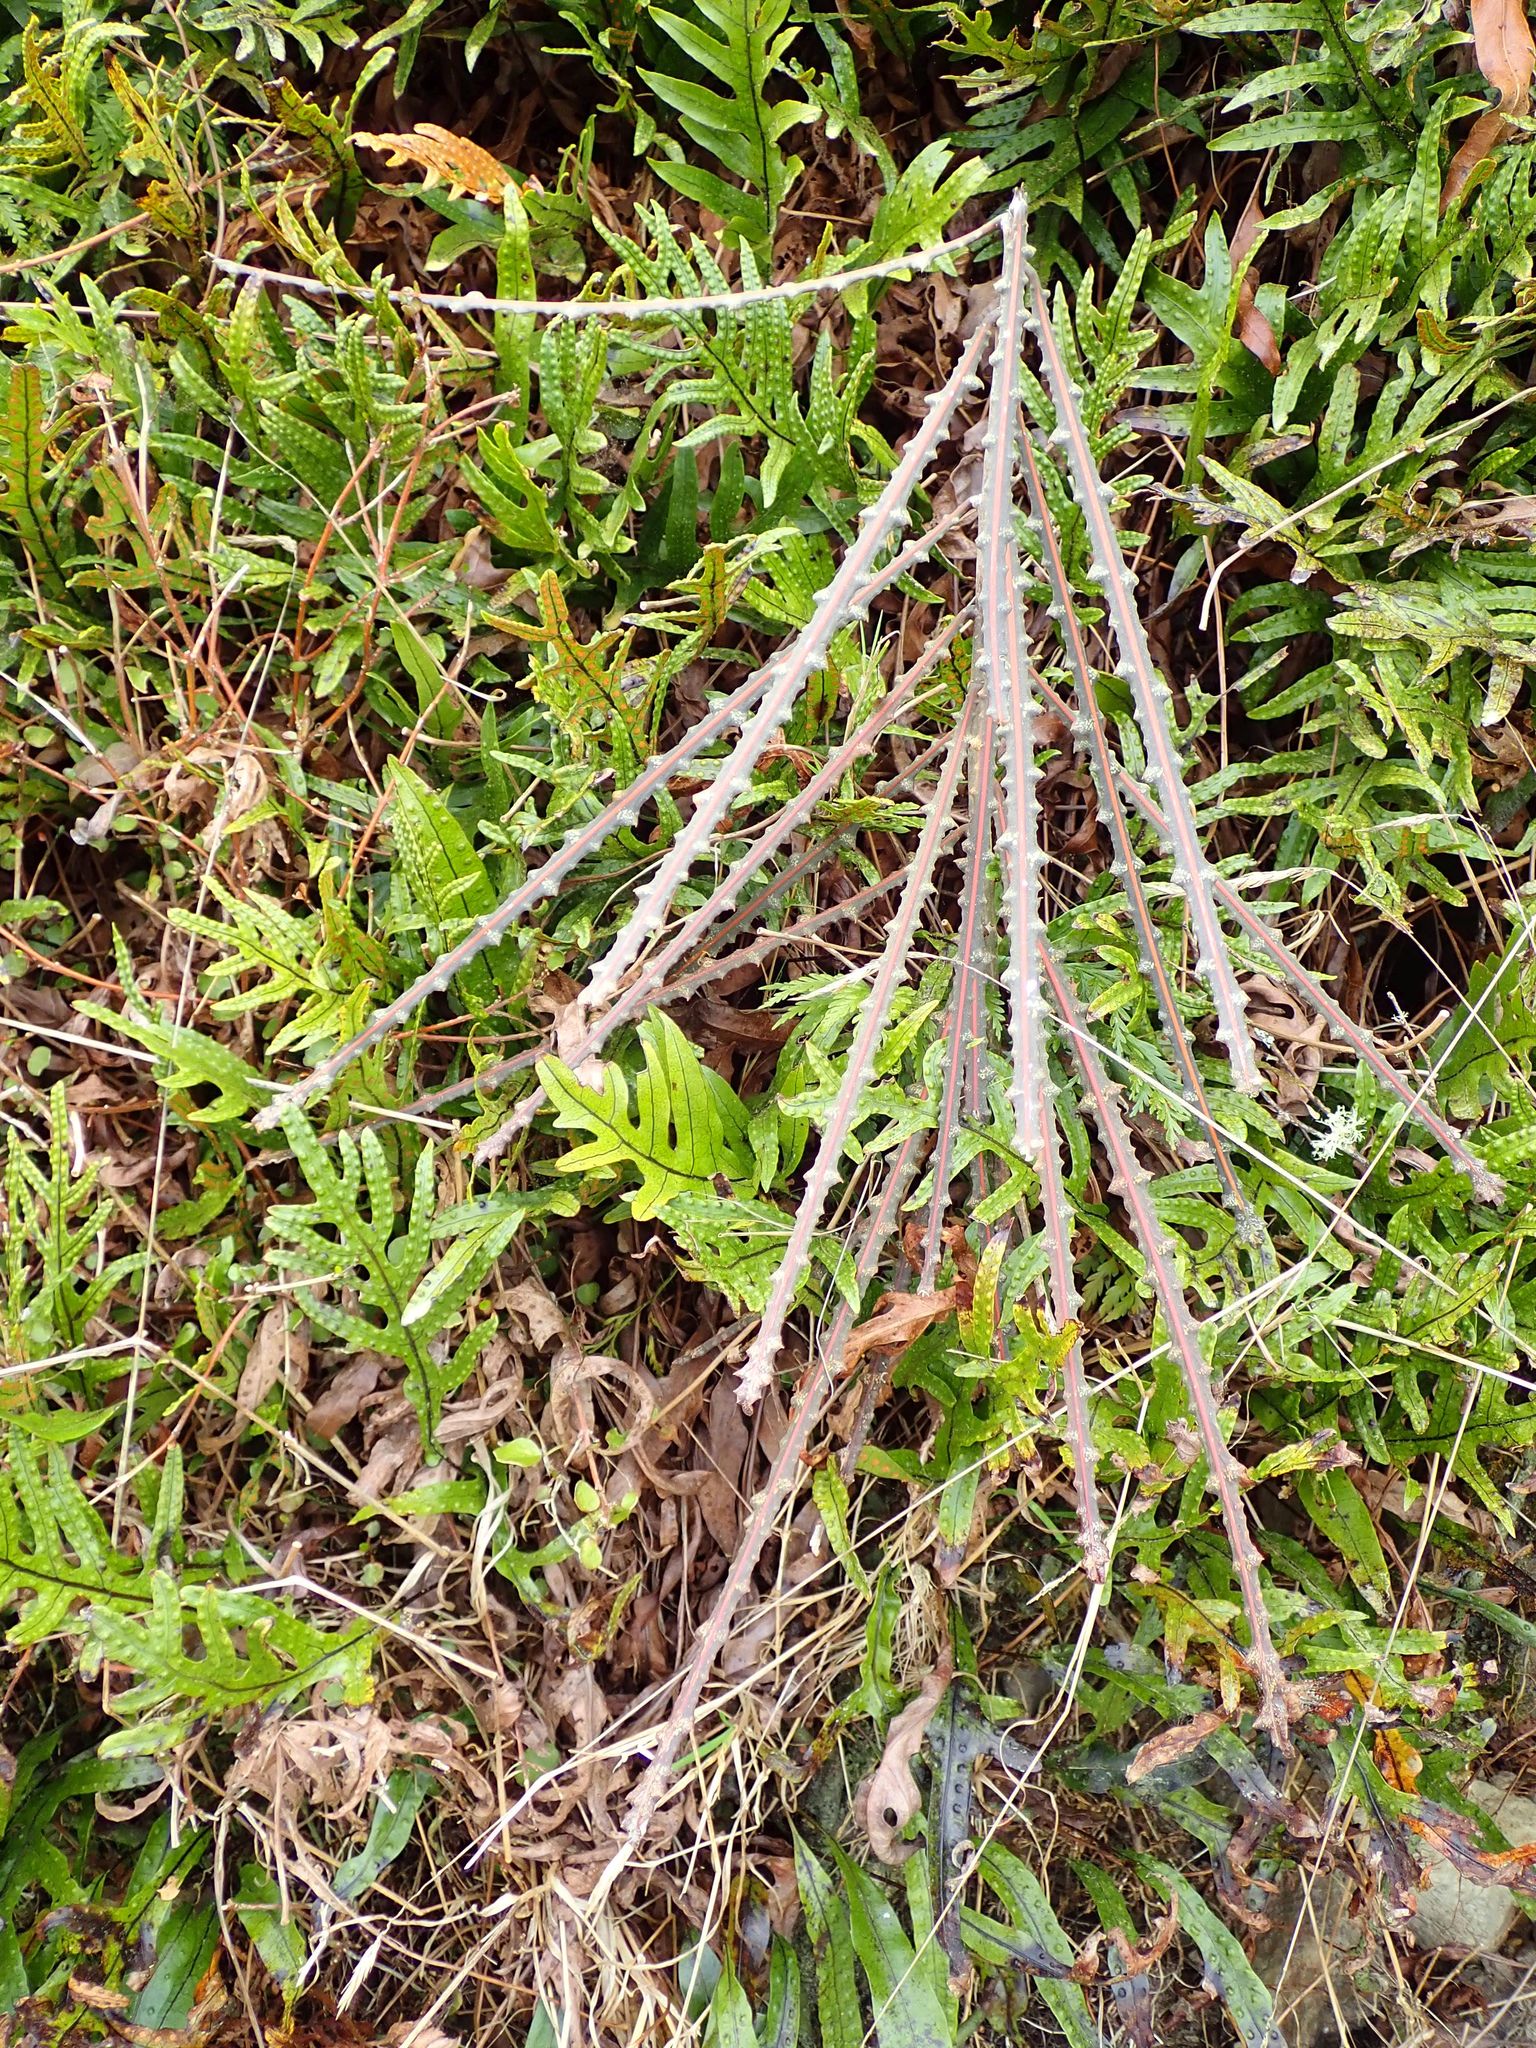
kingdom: Plantae
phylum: Tracheophyta
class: Magnoliopsida
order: Apiales
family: Araliaceae
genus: Pseudopanax
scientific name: Pseudopanax ferox
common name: Fierce lancewood
